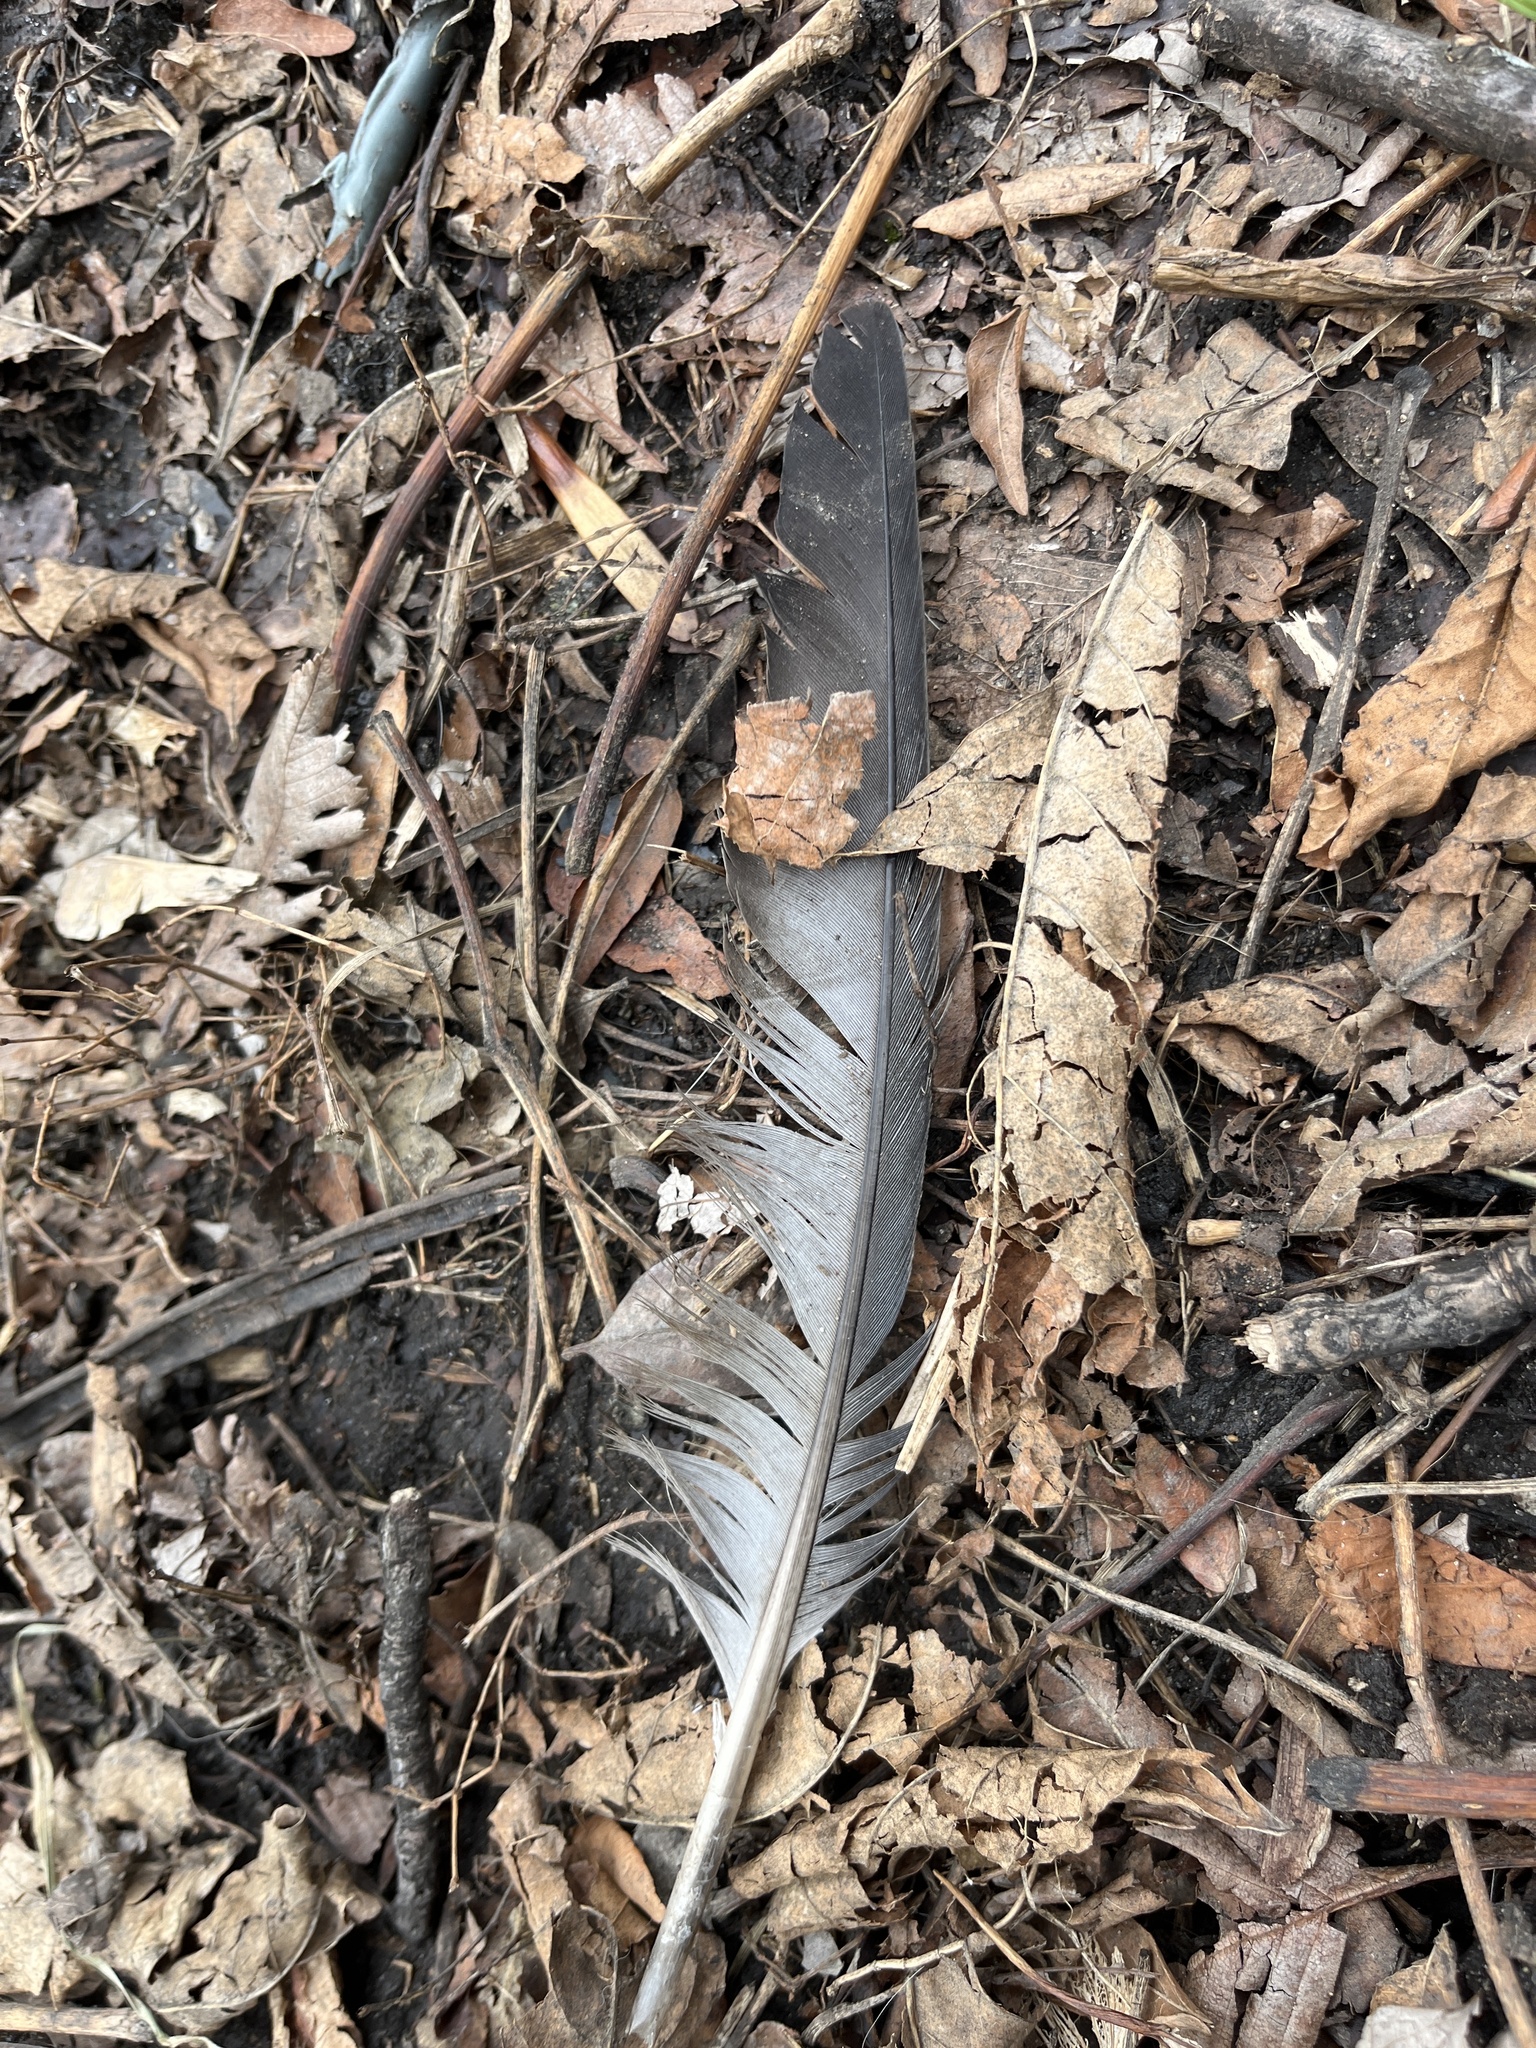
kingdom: Animalia
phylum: Chordata
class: Aves
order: Columbiformes
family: Columbidae
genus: Columba
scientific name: Columba livia
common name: Rock pigeon
